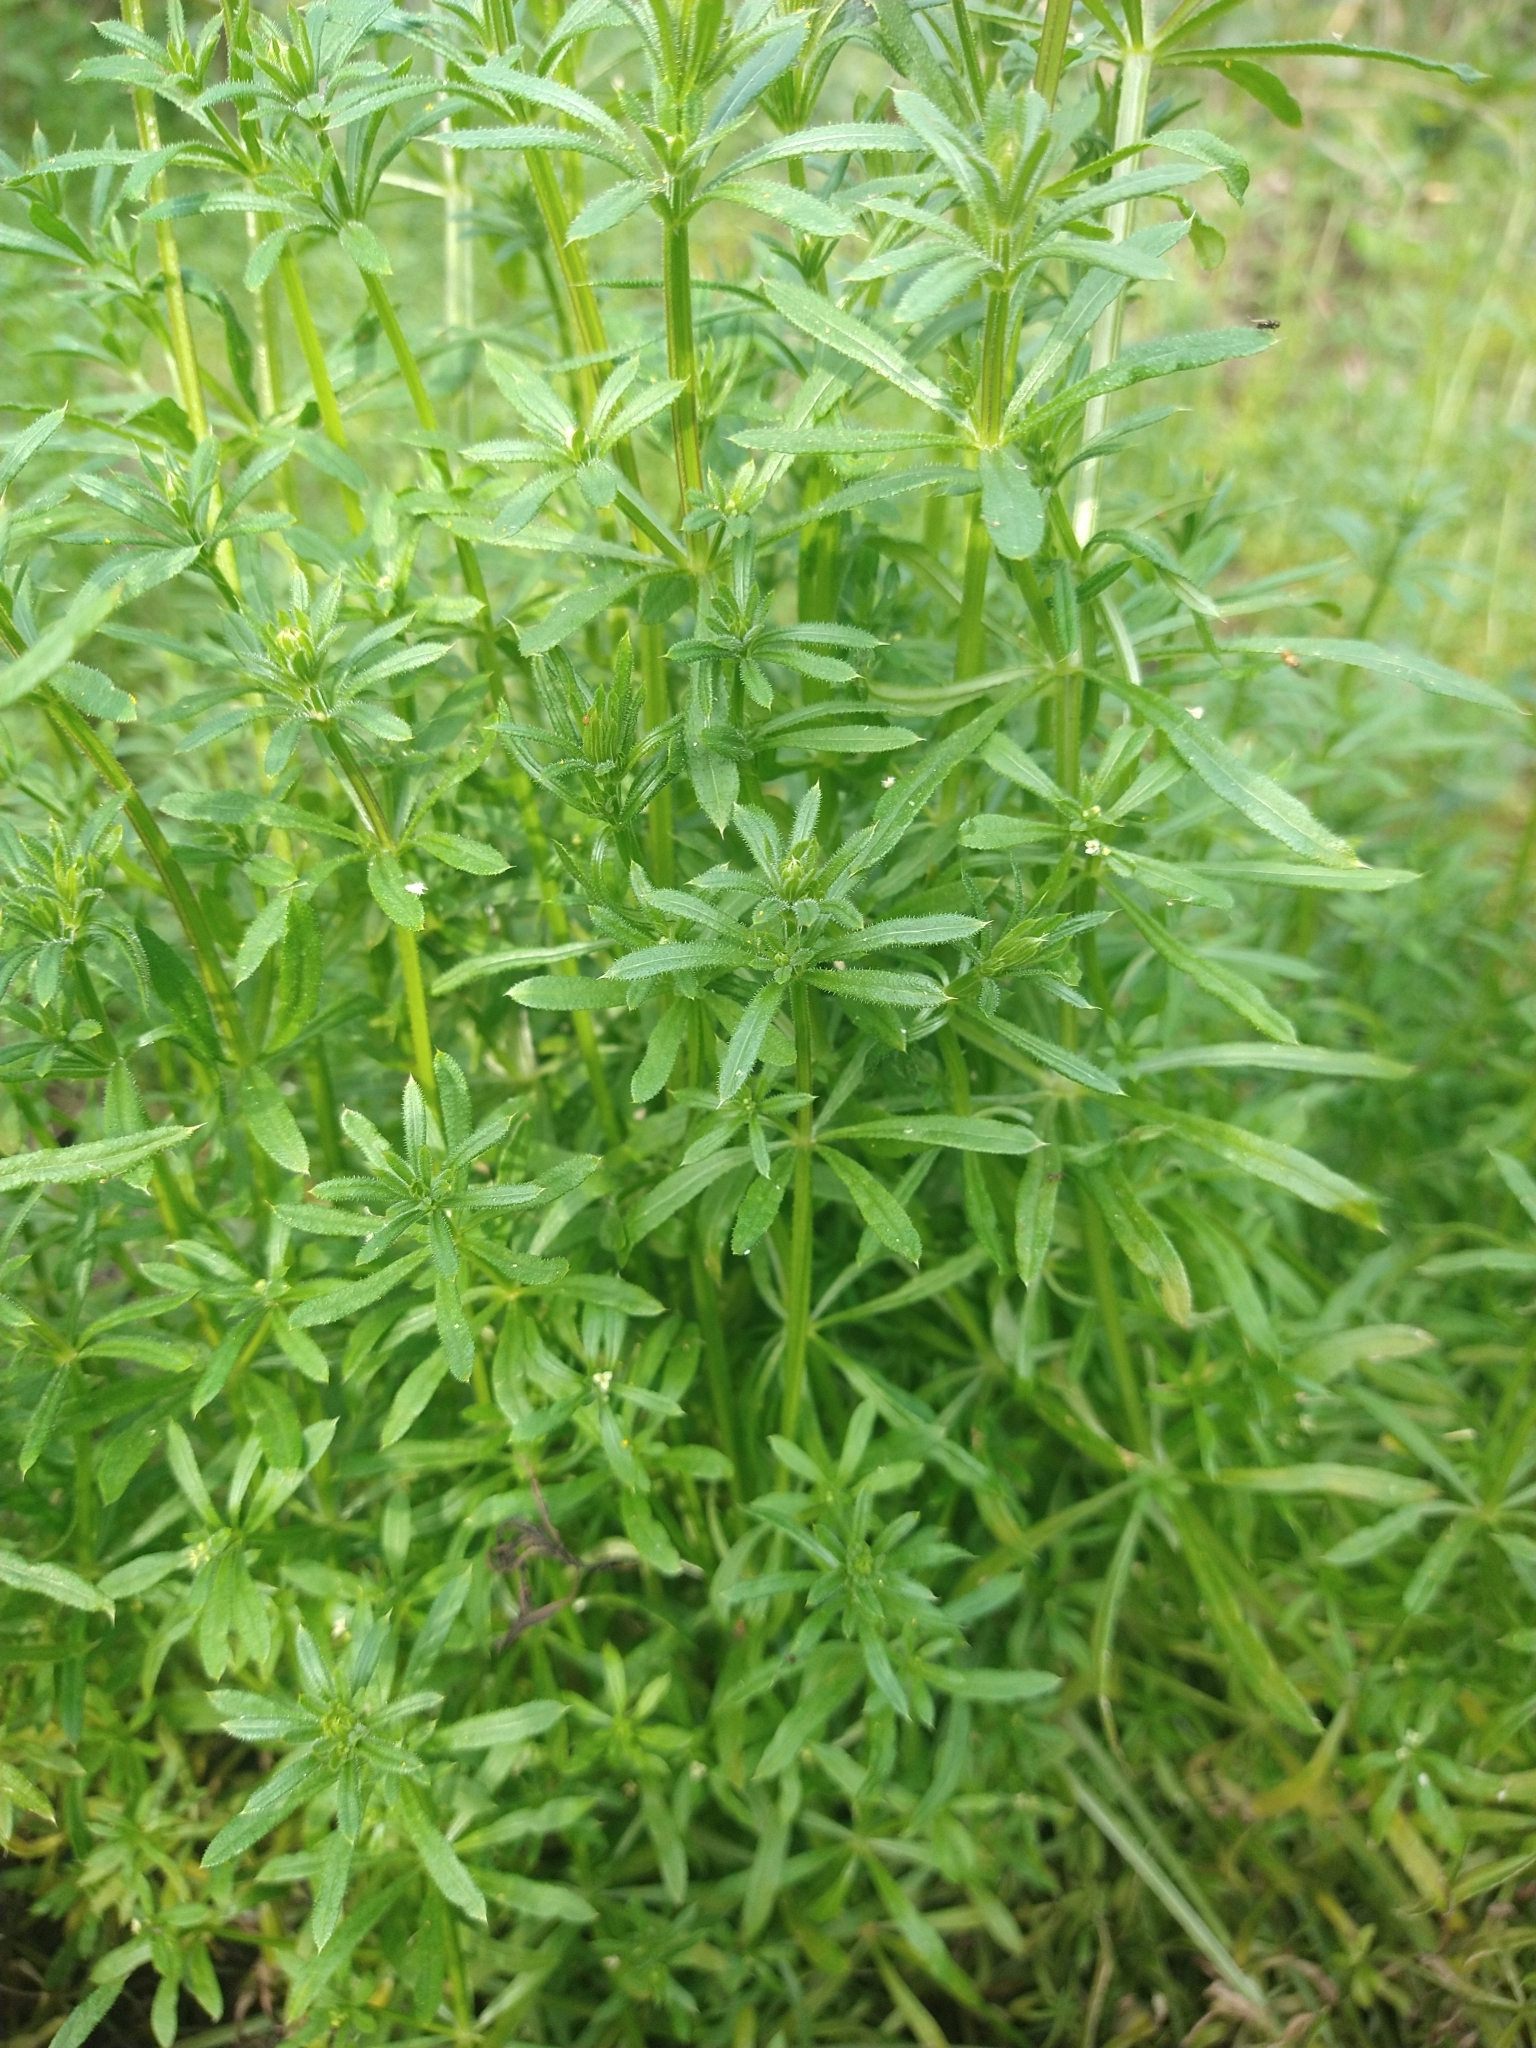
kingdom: Plantae
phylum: Tracheophyta
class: Magnoliopsida
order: Gentianales
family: Rubiaceae
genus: Galium
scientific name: Galium aparine
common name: Cleavers
